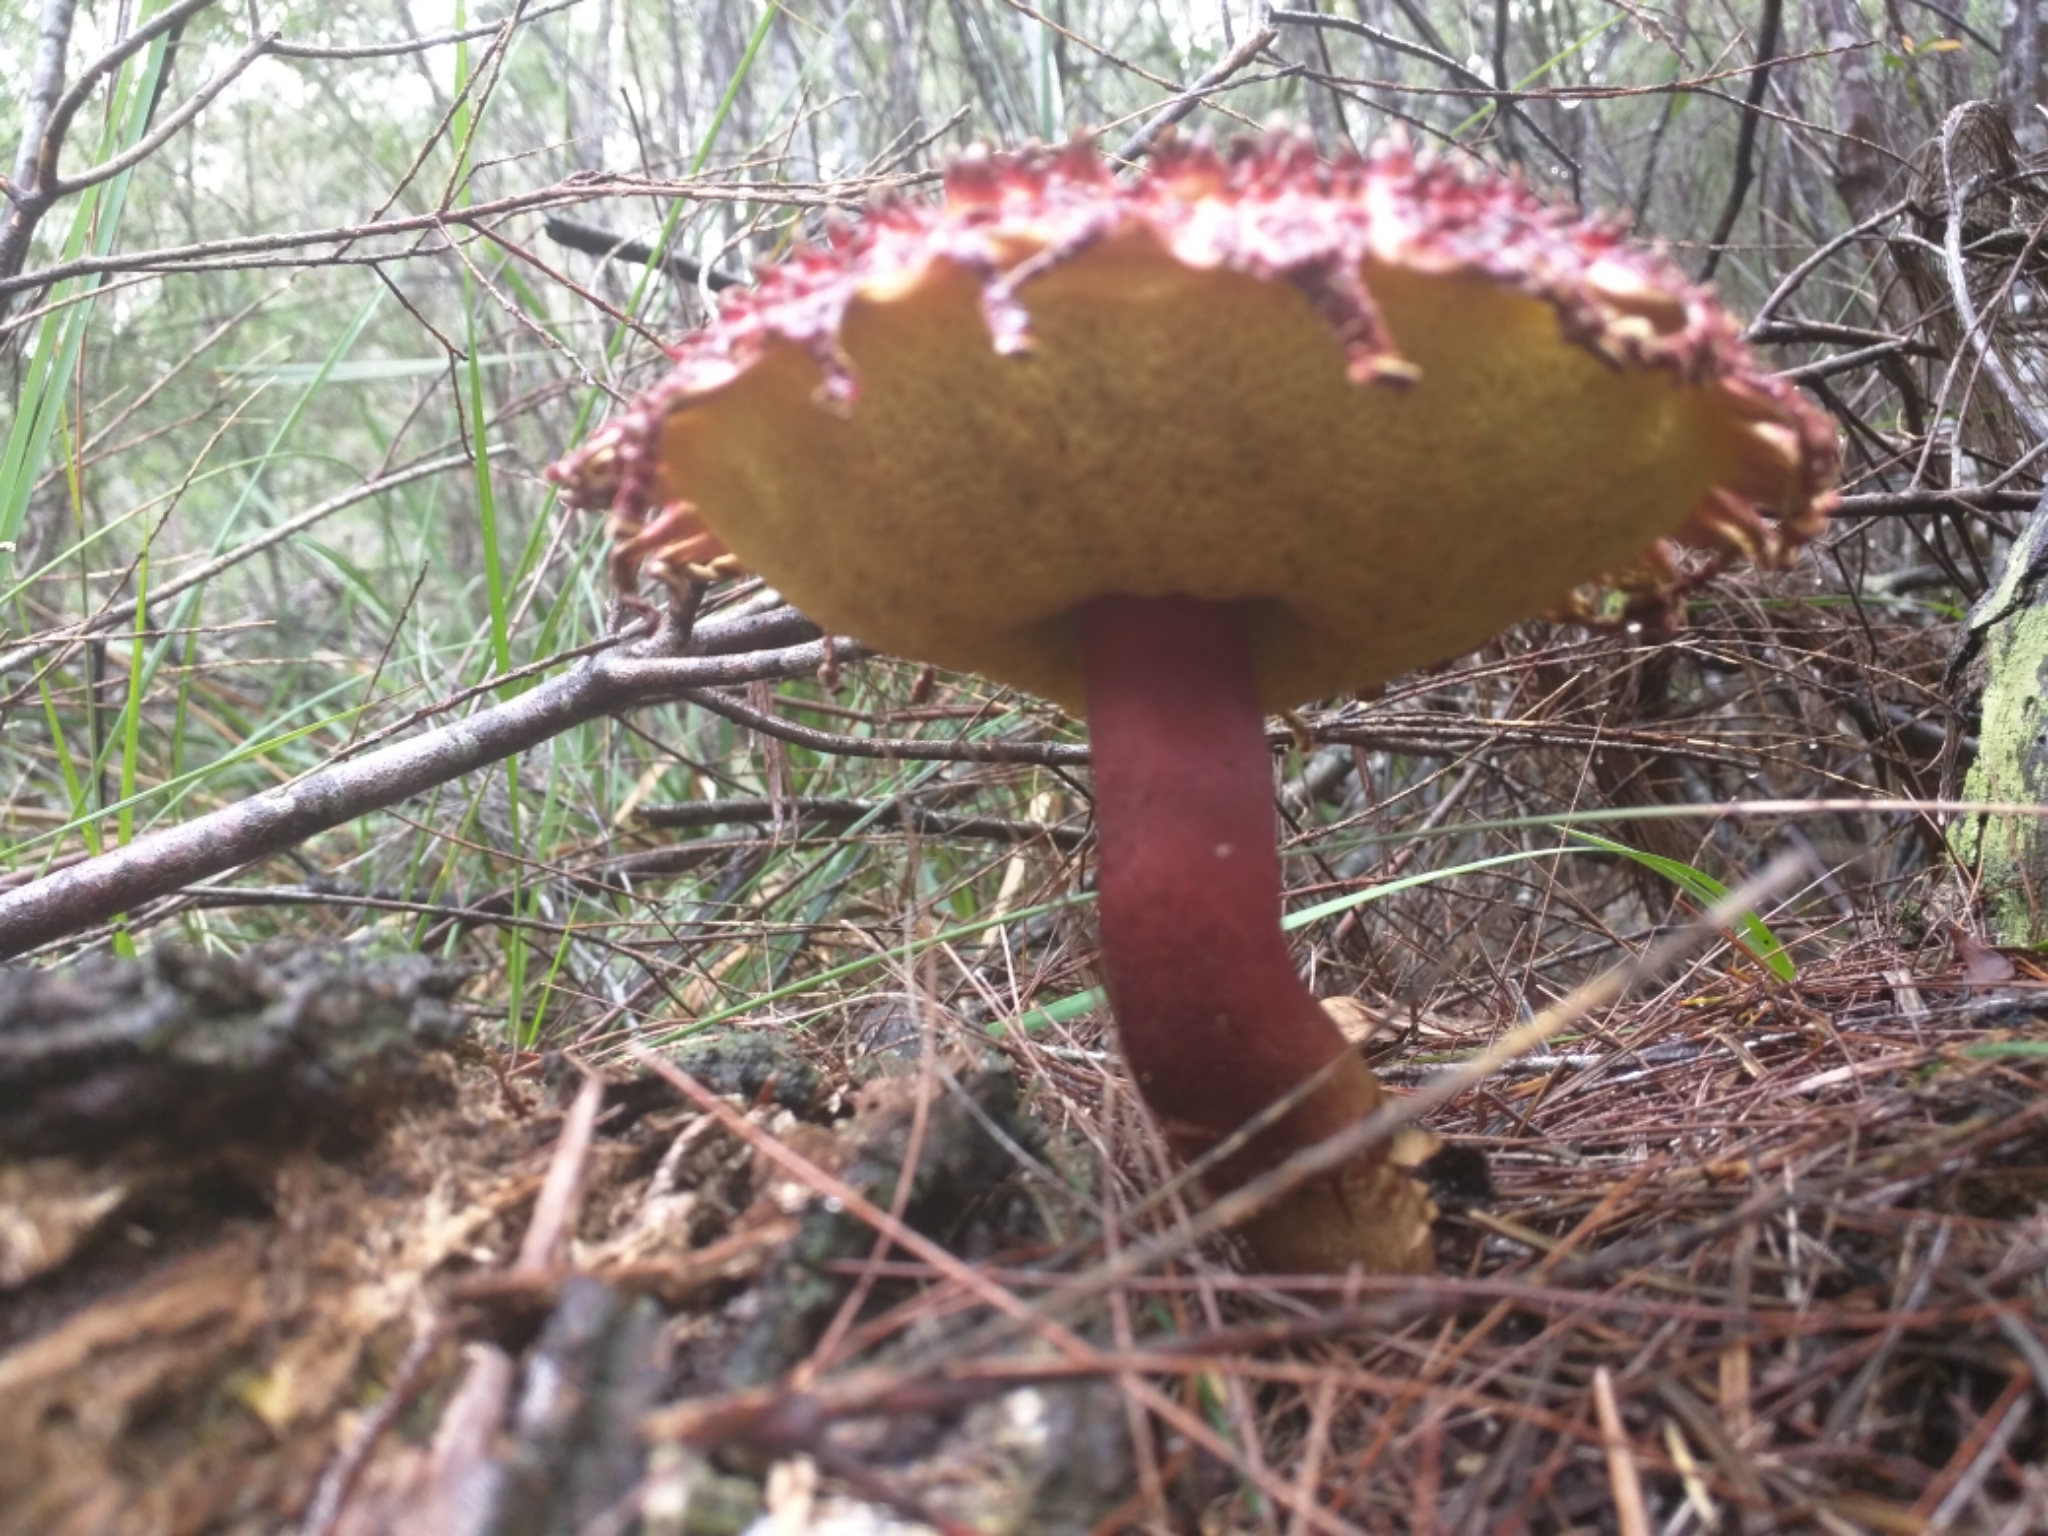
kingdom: Fungi
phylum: Basidiomycota
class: Agaricomycetes
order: Boletales
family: Boletaceae
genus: Boletellus
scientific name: Boletellus emodensis
